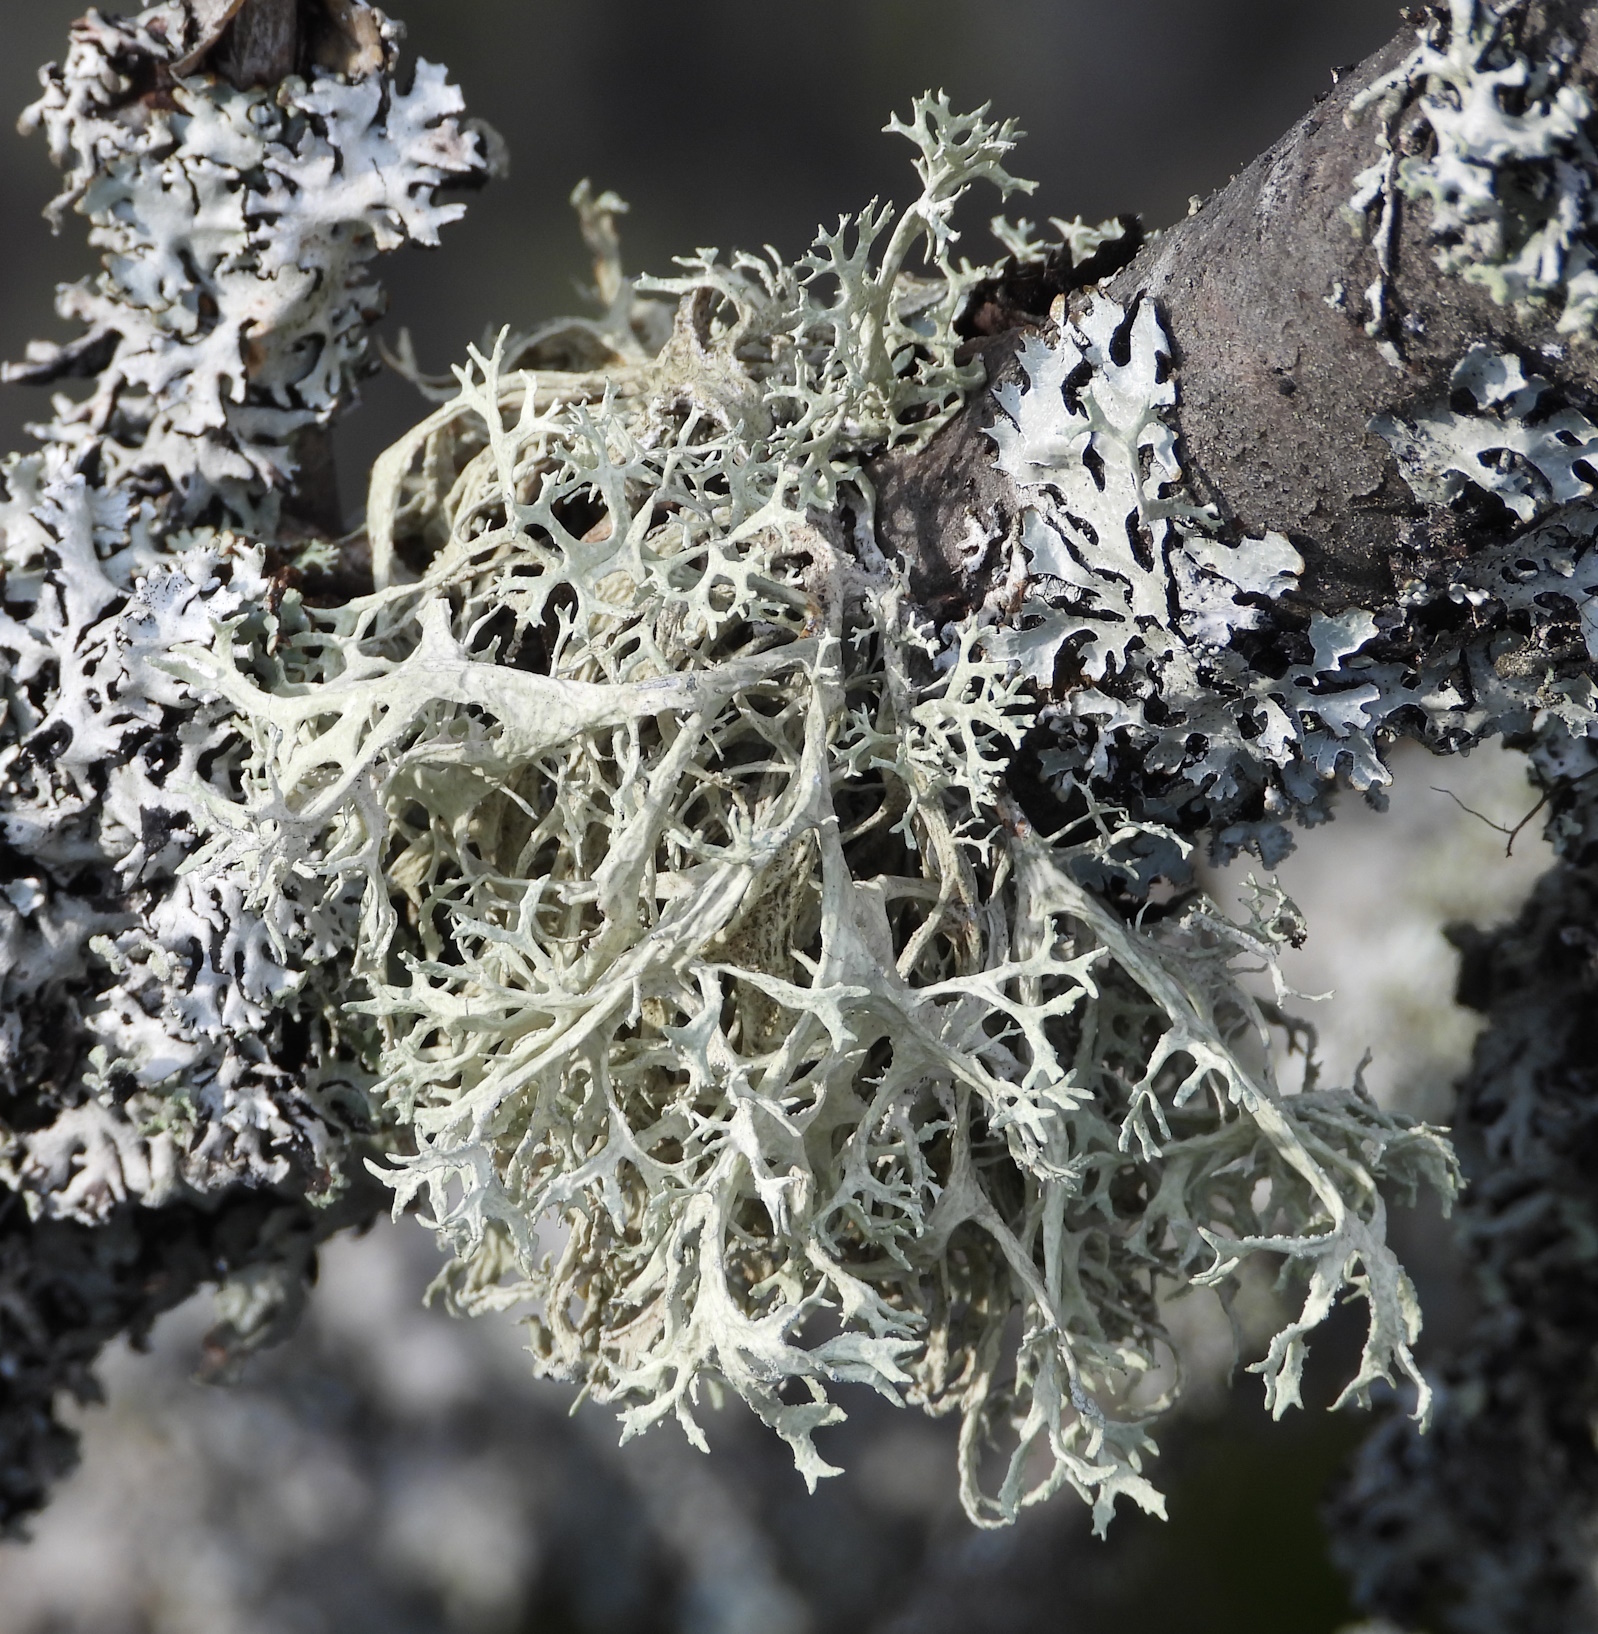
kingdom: Fungi
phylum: Ascomycota
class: Lecanoromycetes
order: Lecanorales
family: Parmeliaceae
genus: Evernia
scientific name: Evernia prunastri
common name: Oak moss
